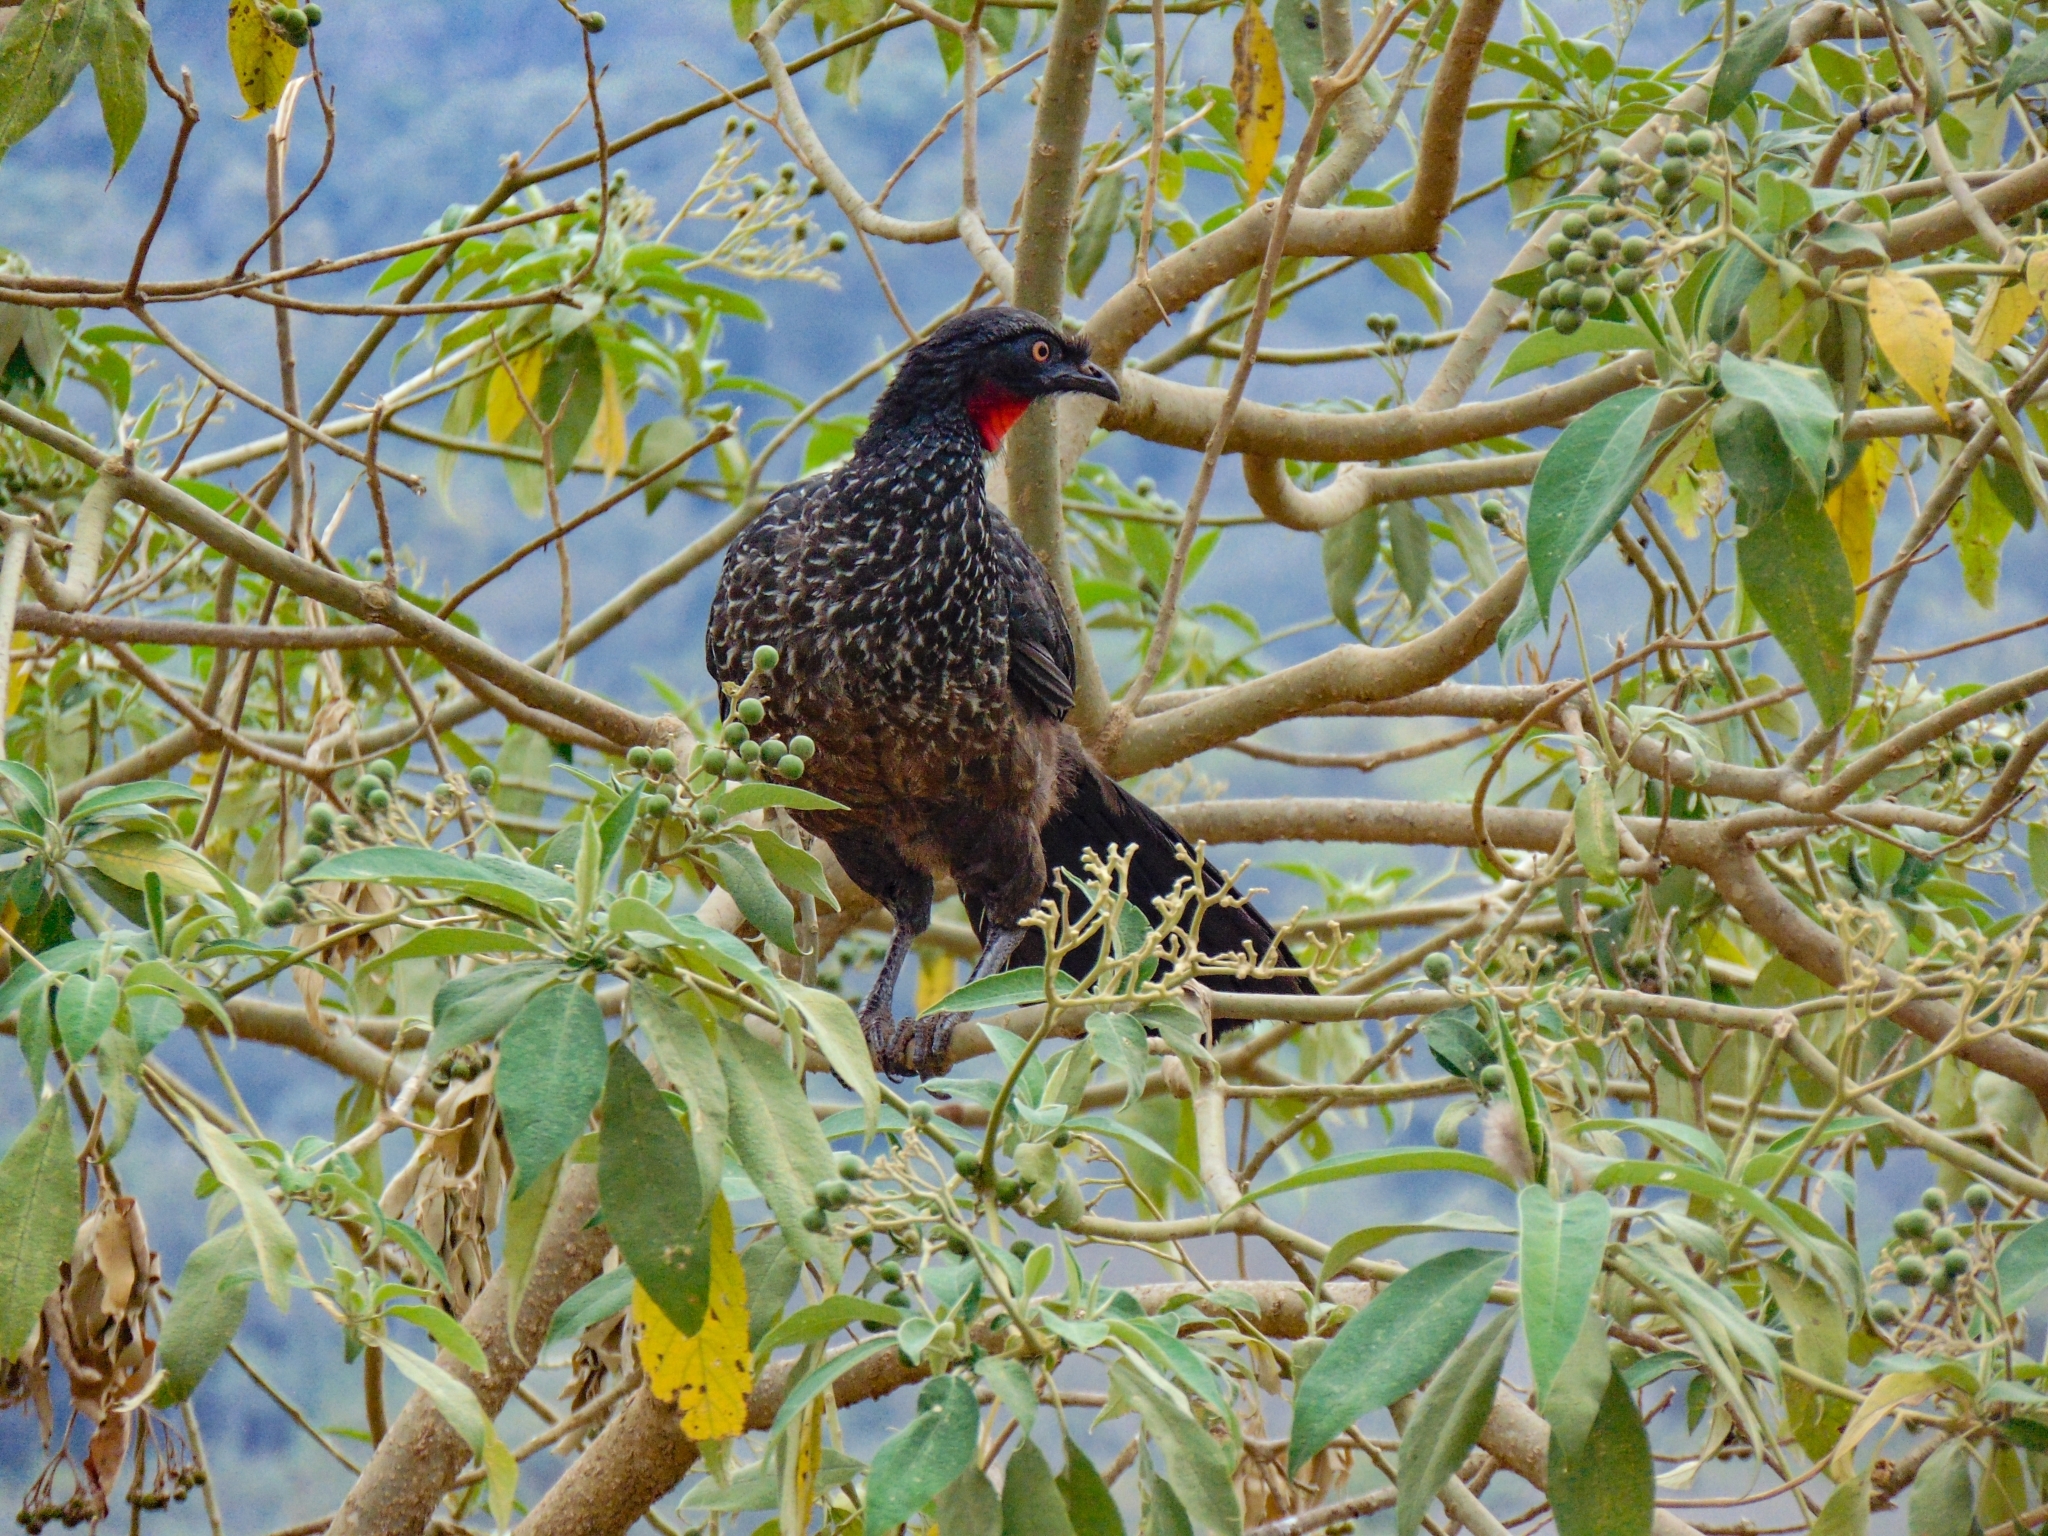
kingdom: Animalia
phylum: Chordata
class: Aves
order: Galliformes
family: Cracidae
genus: Penelope
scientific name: Penelope obscura
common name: Dusky-legged guan
